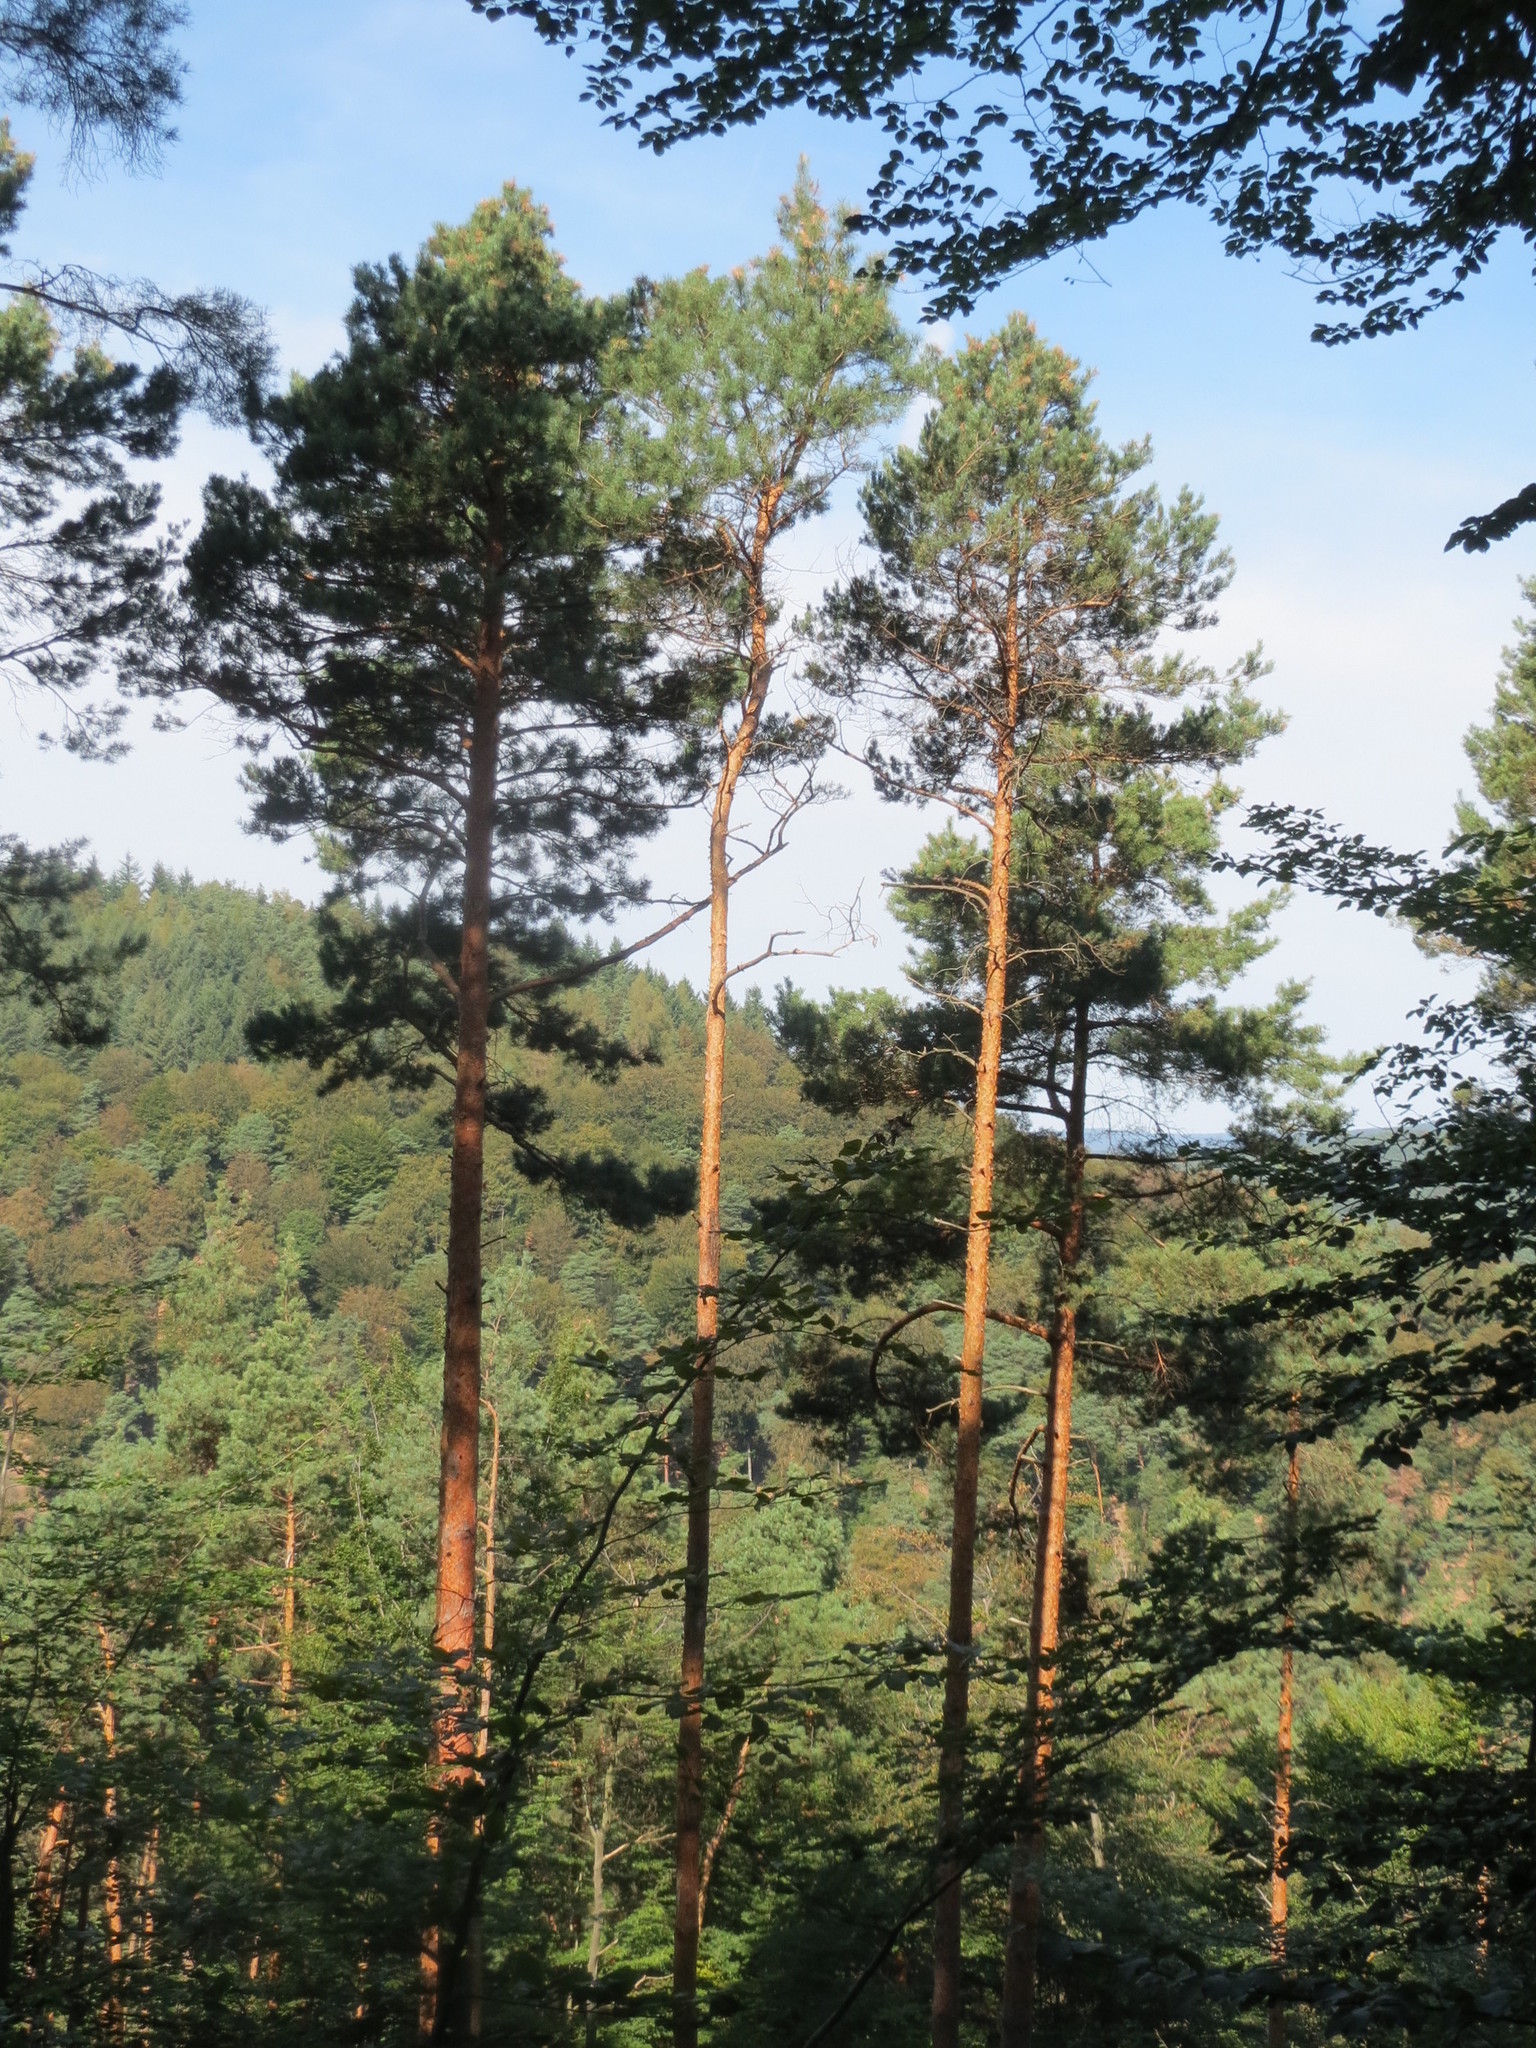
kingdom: Plantae
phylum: Tracheophyta
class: Pinopsida
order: Pinales
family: Pinaceae
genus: Pinus
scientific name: Pinus sylvestris
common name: Scots pine
